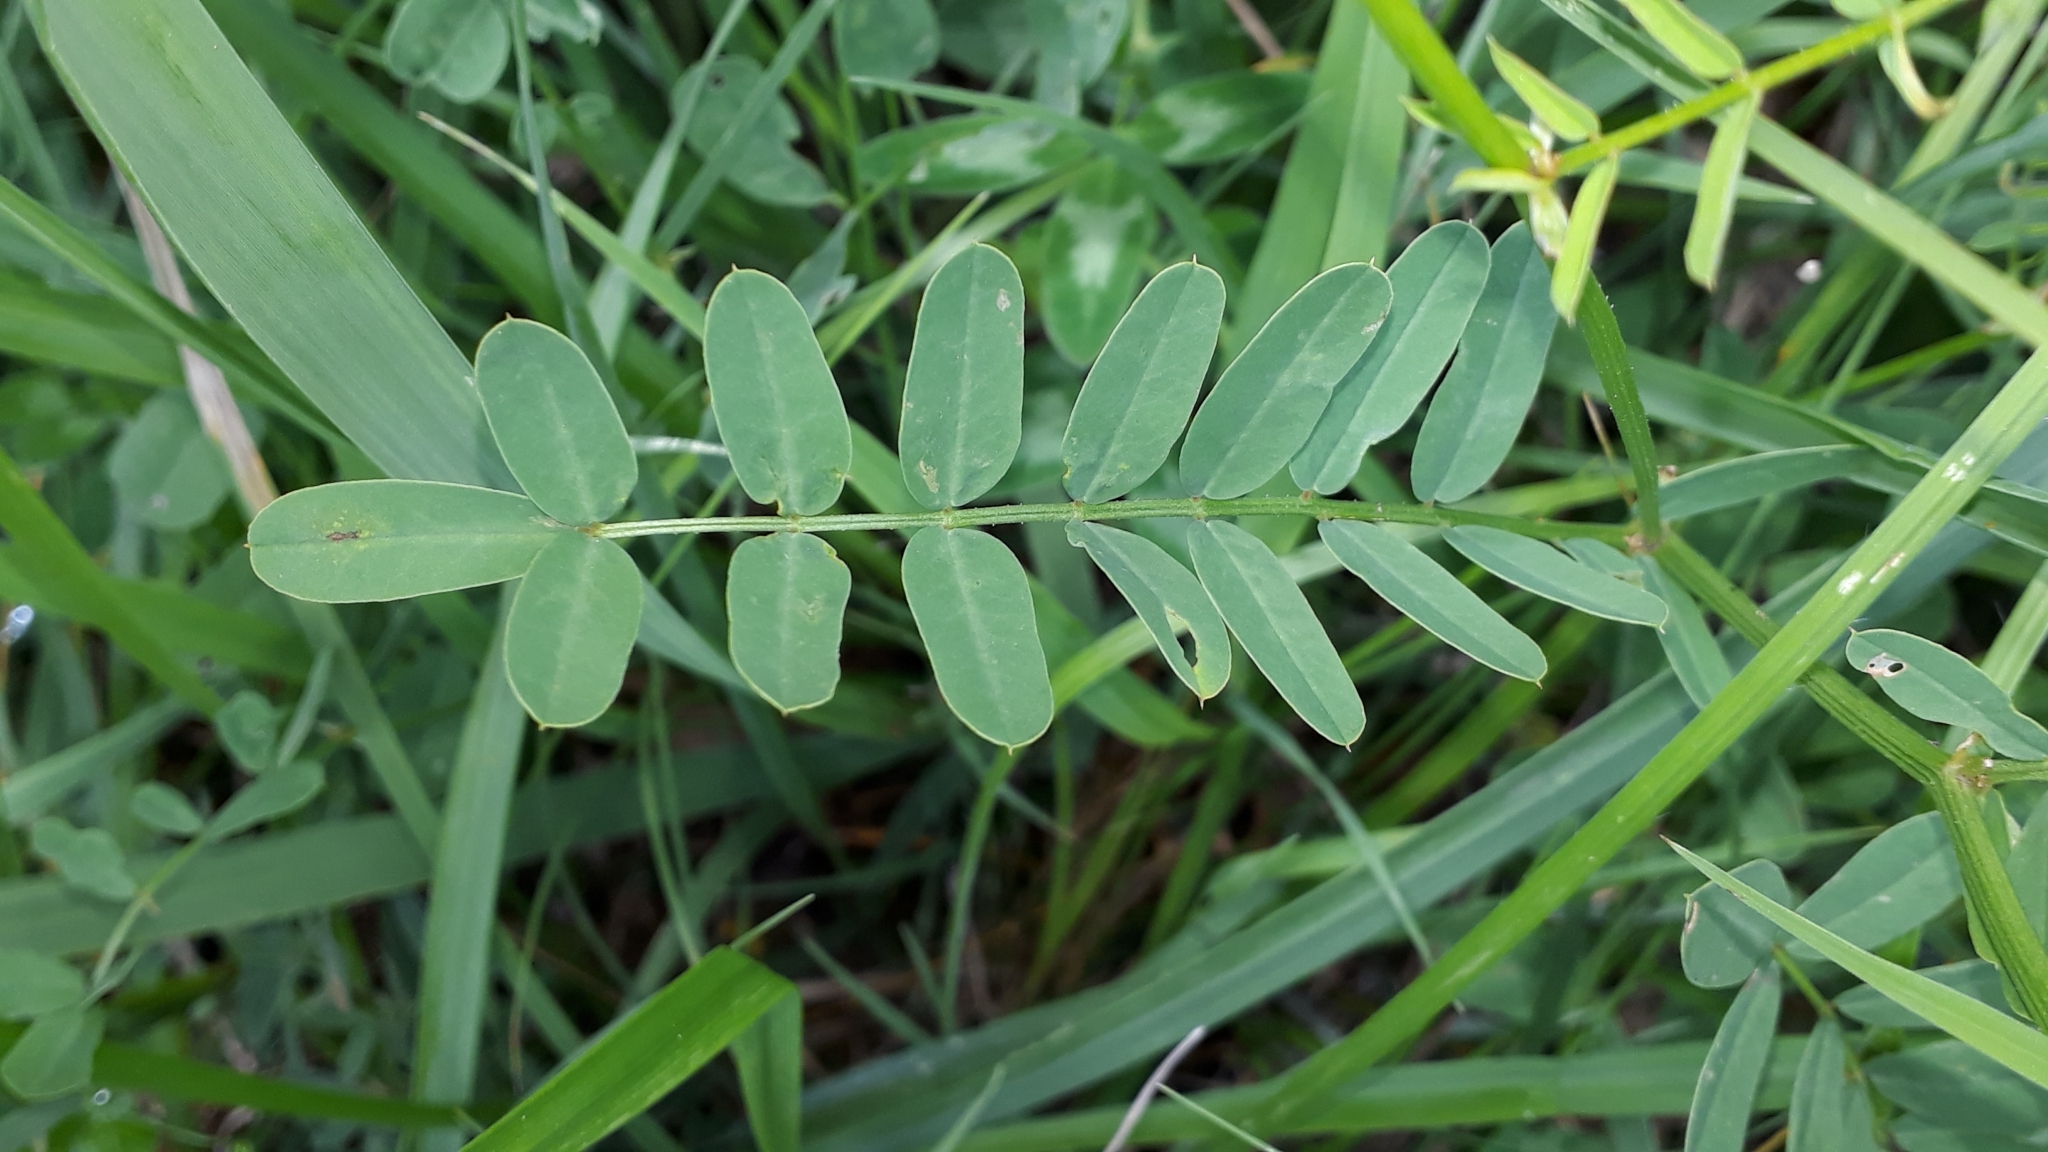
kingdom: Plantae
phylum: Tracheophyta
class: Magnoliopsida
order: Fabales
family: Fabaceae
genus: Coronilla
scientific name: Coronilla varia
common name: Crownvetch
